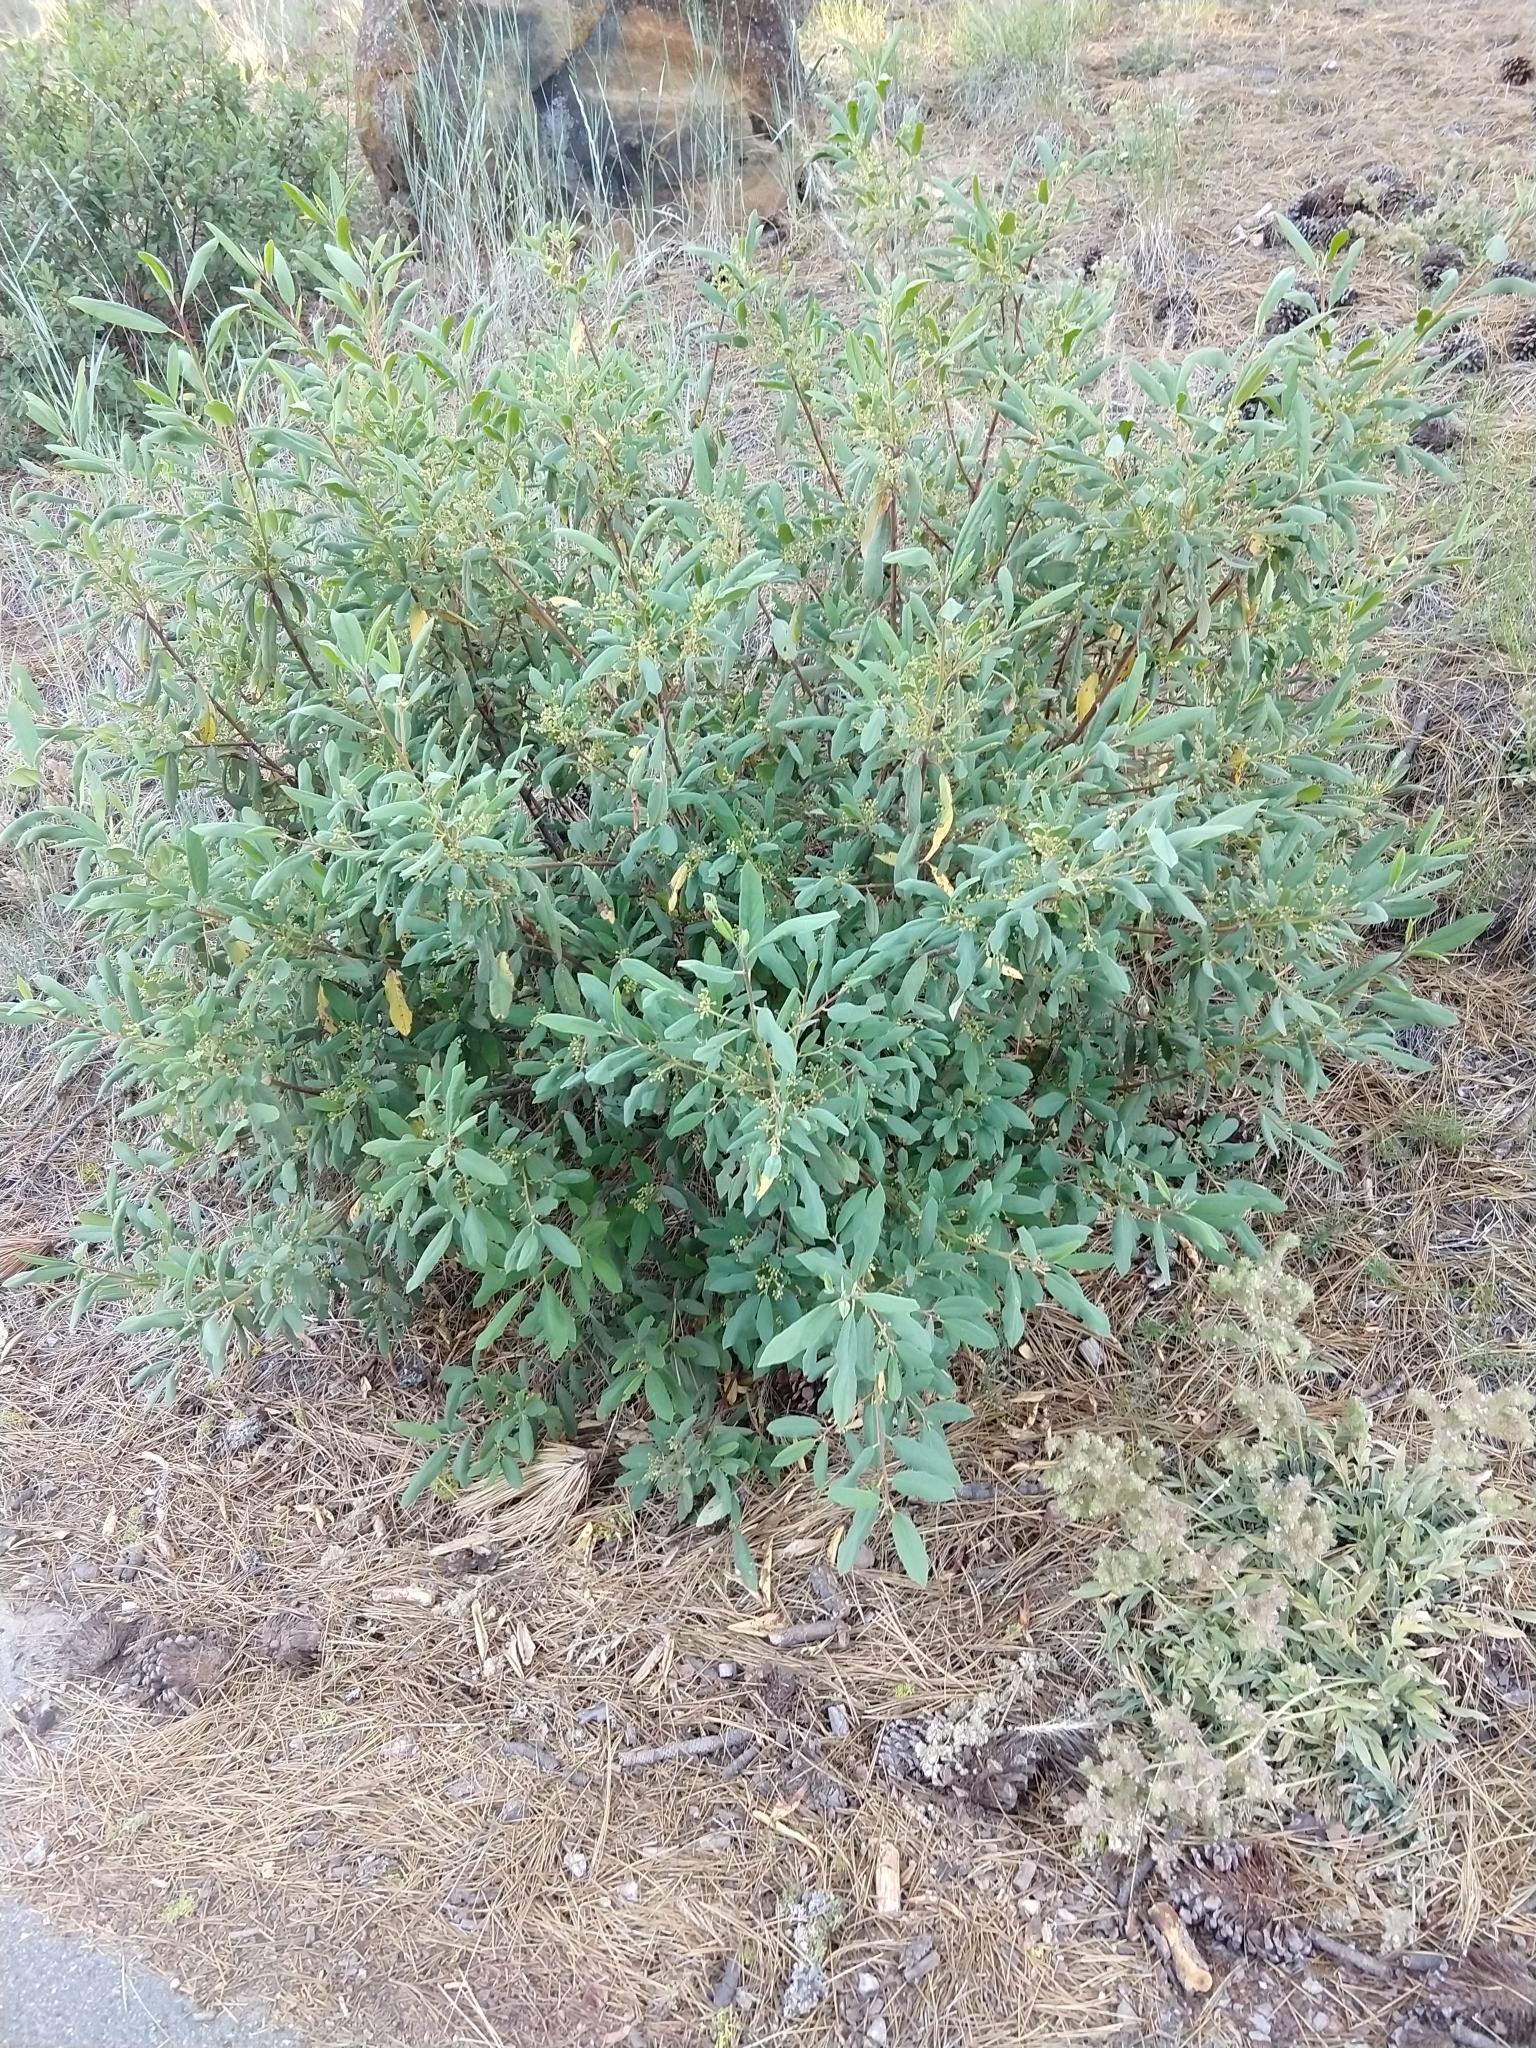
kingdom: Plantae
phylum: Tracheophyta
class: Magnoliopsida
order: Rosales
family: Rhamnaceae
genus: Frangula
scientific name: Frangula californica
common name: California buckthorn
